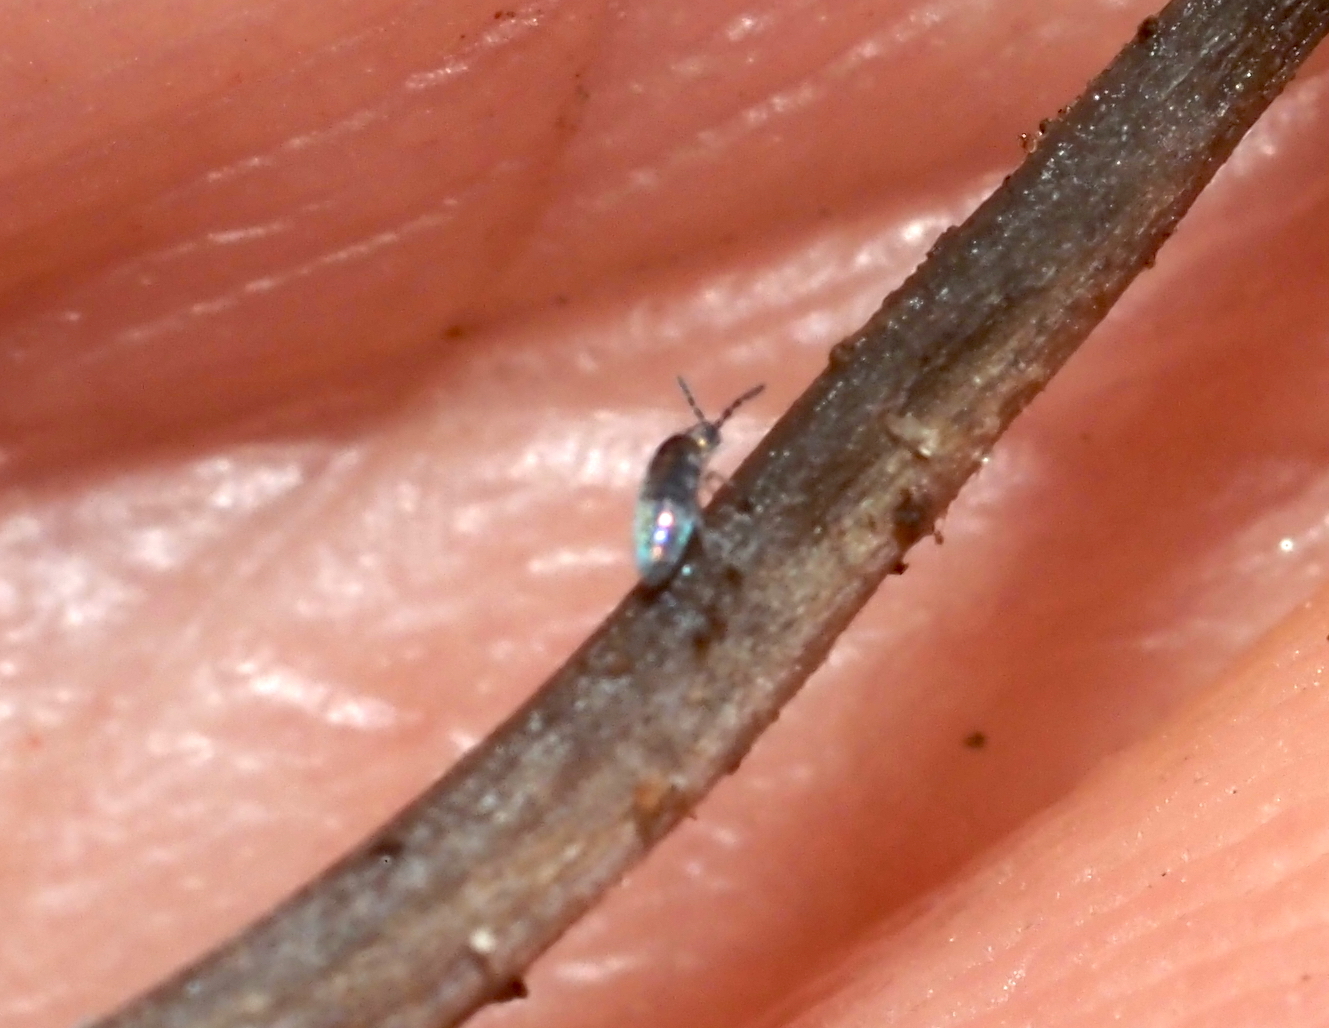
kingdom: Animalia
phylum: Arthropoda
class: Collembola
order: Entomobryomorpha
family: Entomobryidae
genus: Lepidocyrtus
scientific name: Lepidocyrtus paradoxus
